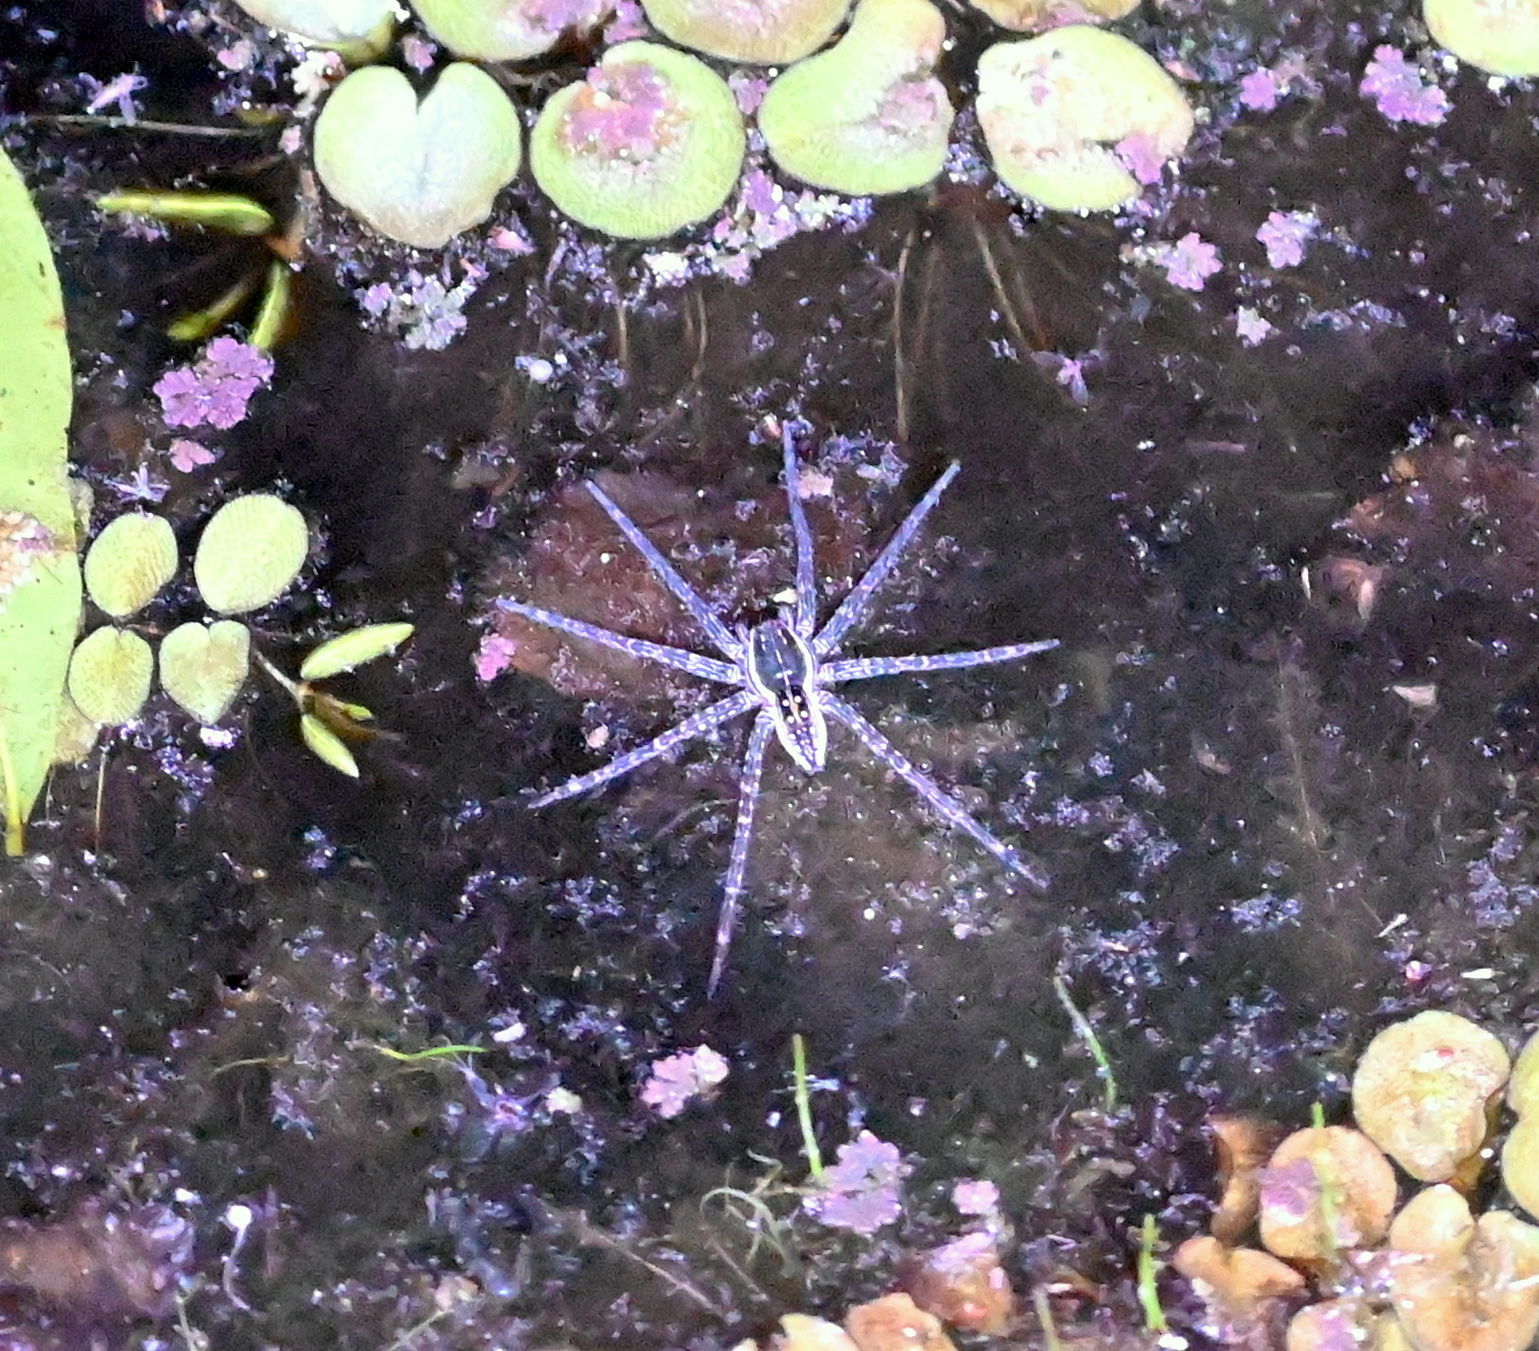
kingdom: Animalia
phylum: Arthropoda
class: Arachnida
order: Araneae
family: Pisauridae
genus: Dolomedes
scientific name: Dolomedes triton
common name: Six-spotted fishing spider
